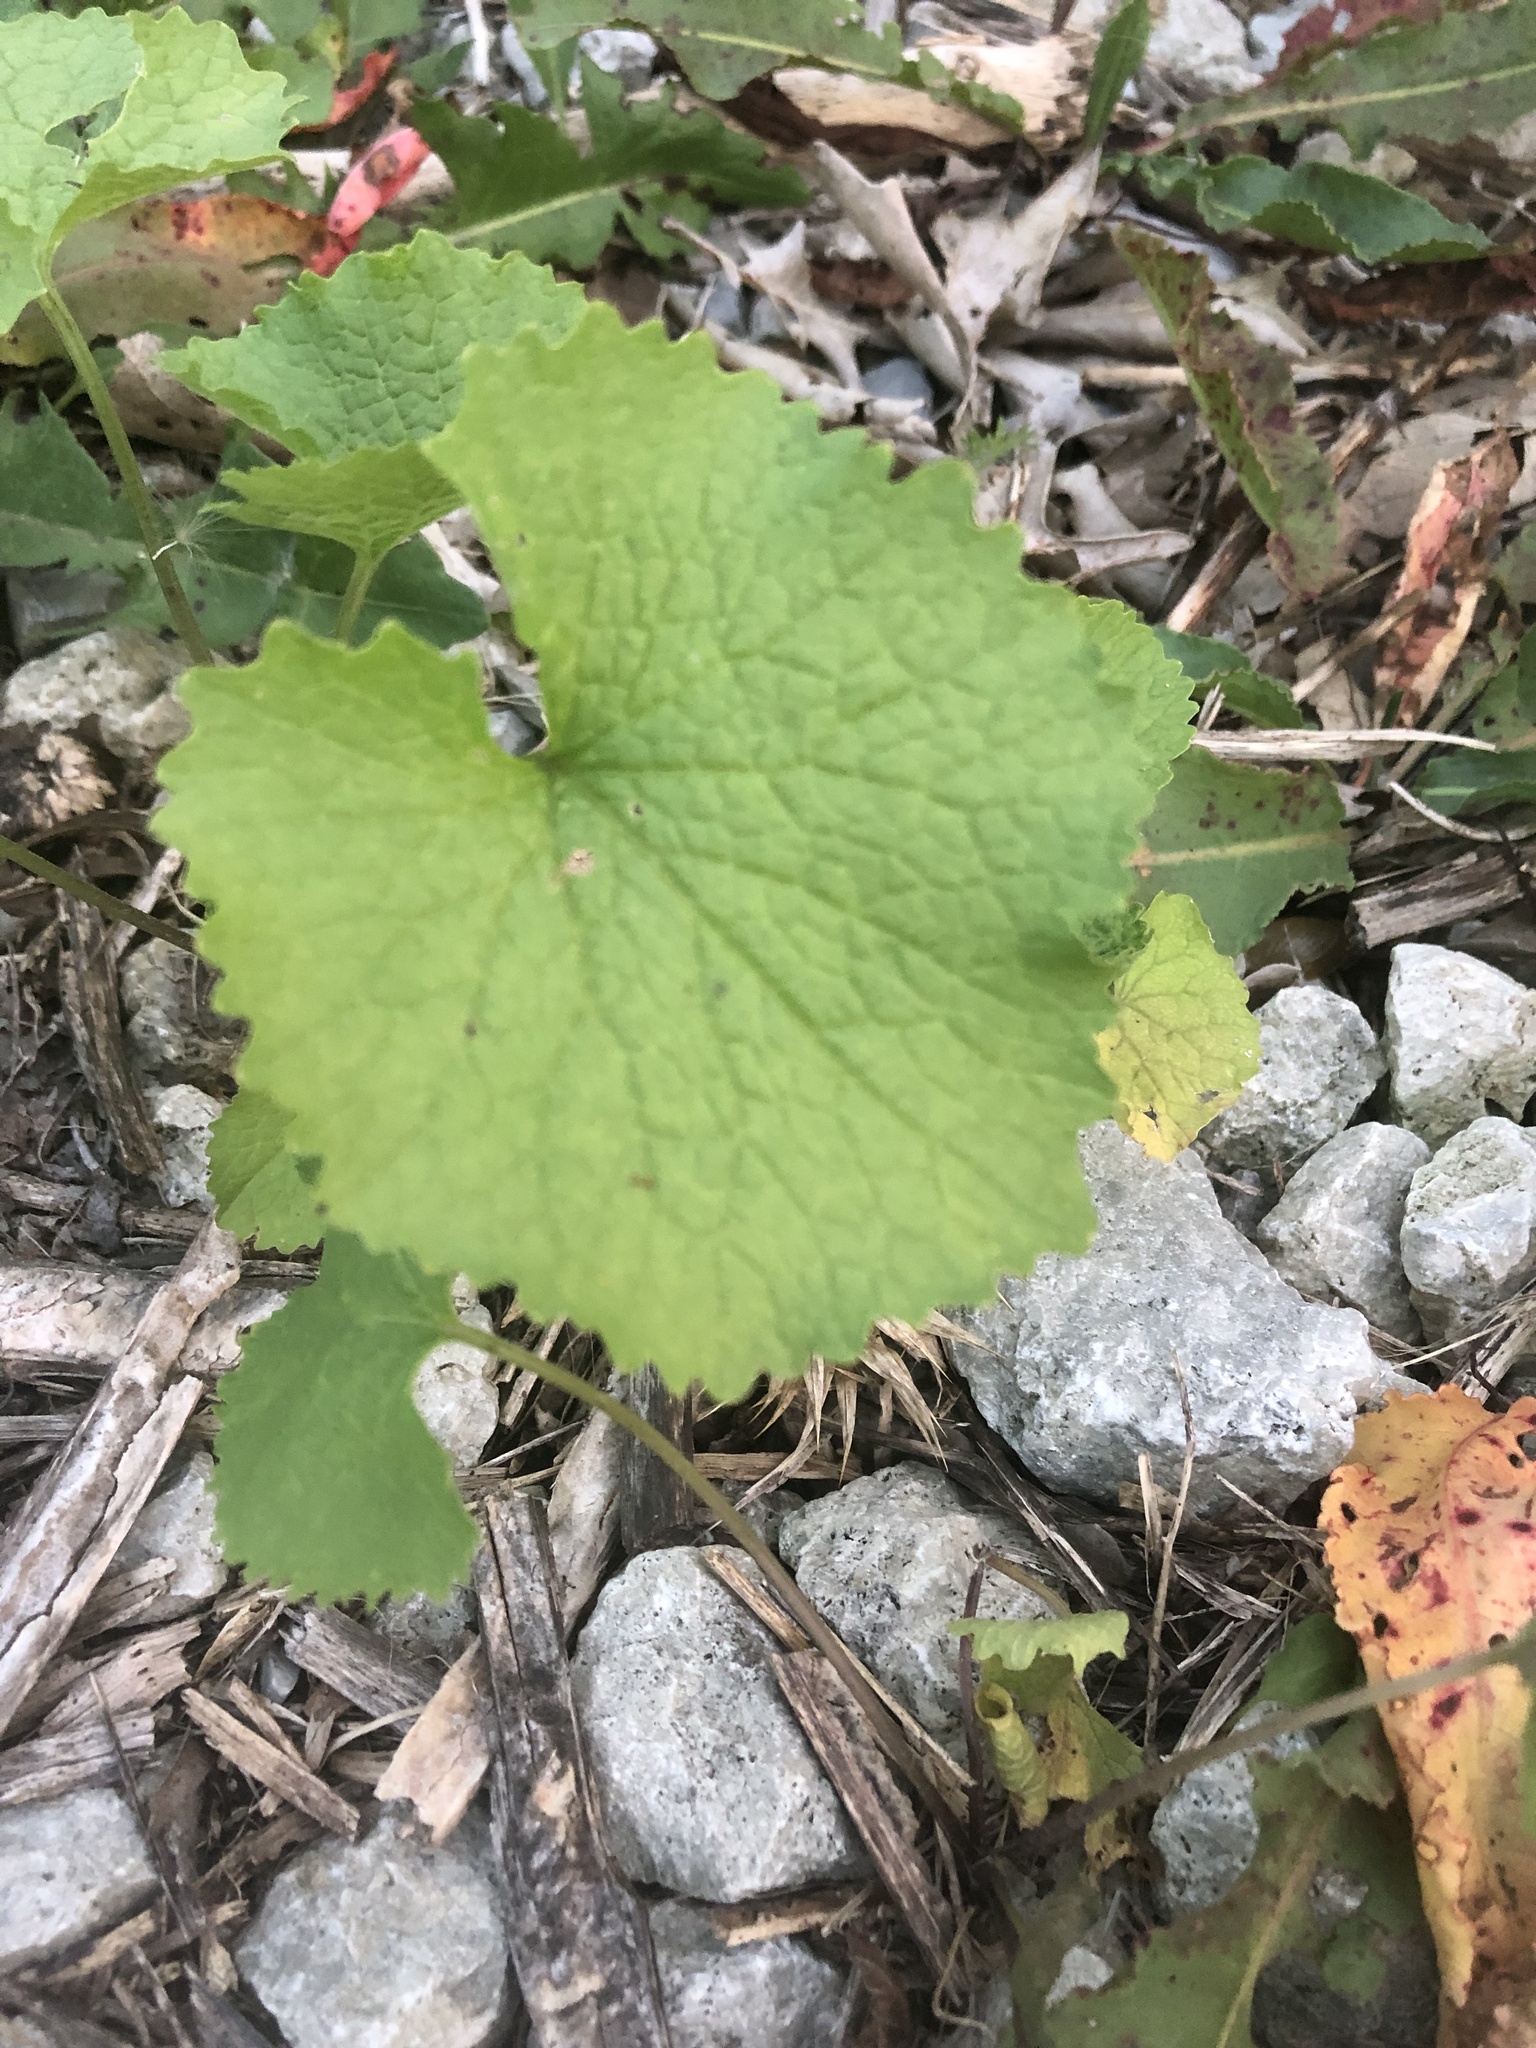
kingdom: Plantae
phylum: Tracheophyta
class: Magnoliopsida
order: Brassicales
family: Brassicaceae
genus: Alliaria
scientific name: Alliaria petiolata
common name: Garlic mustard
